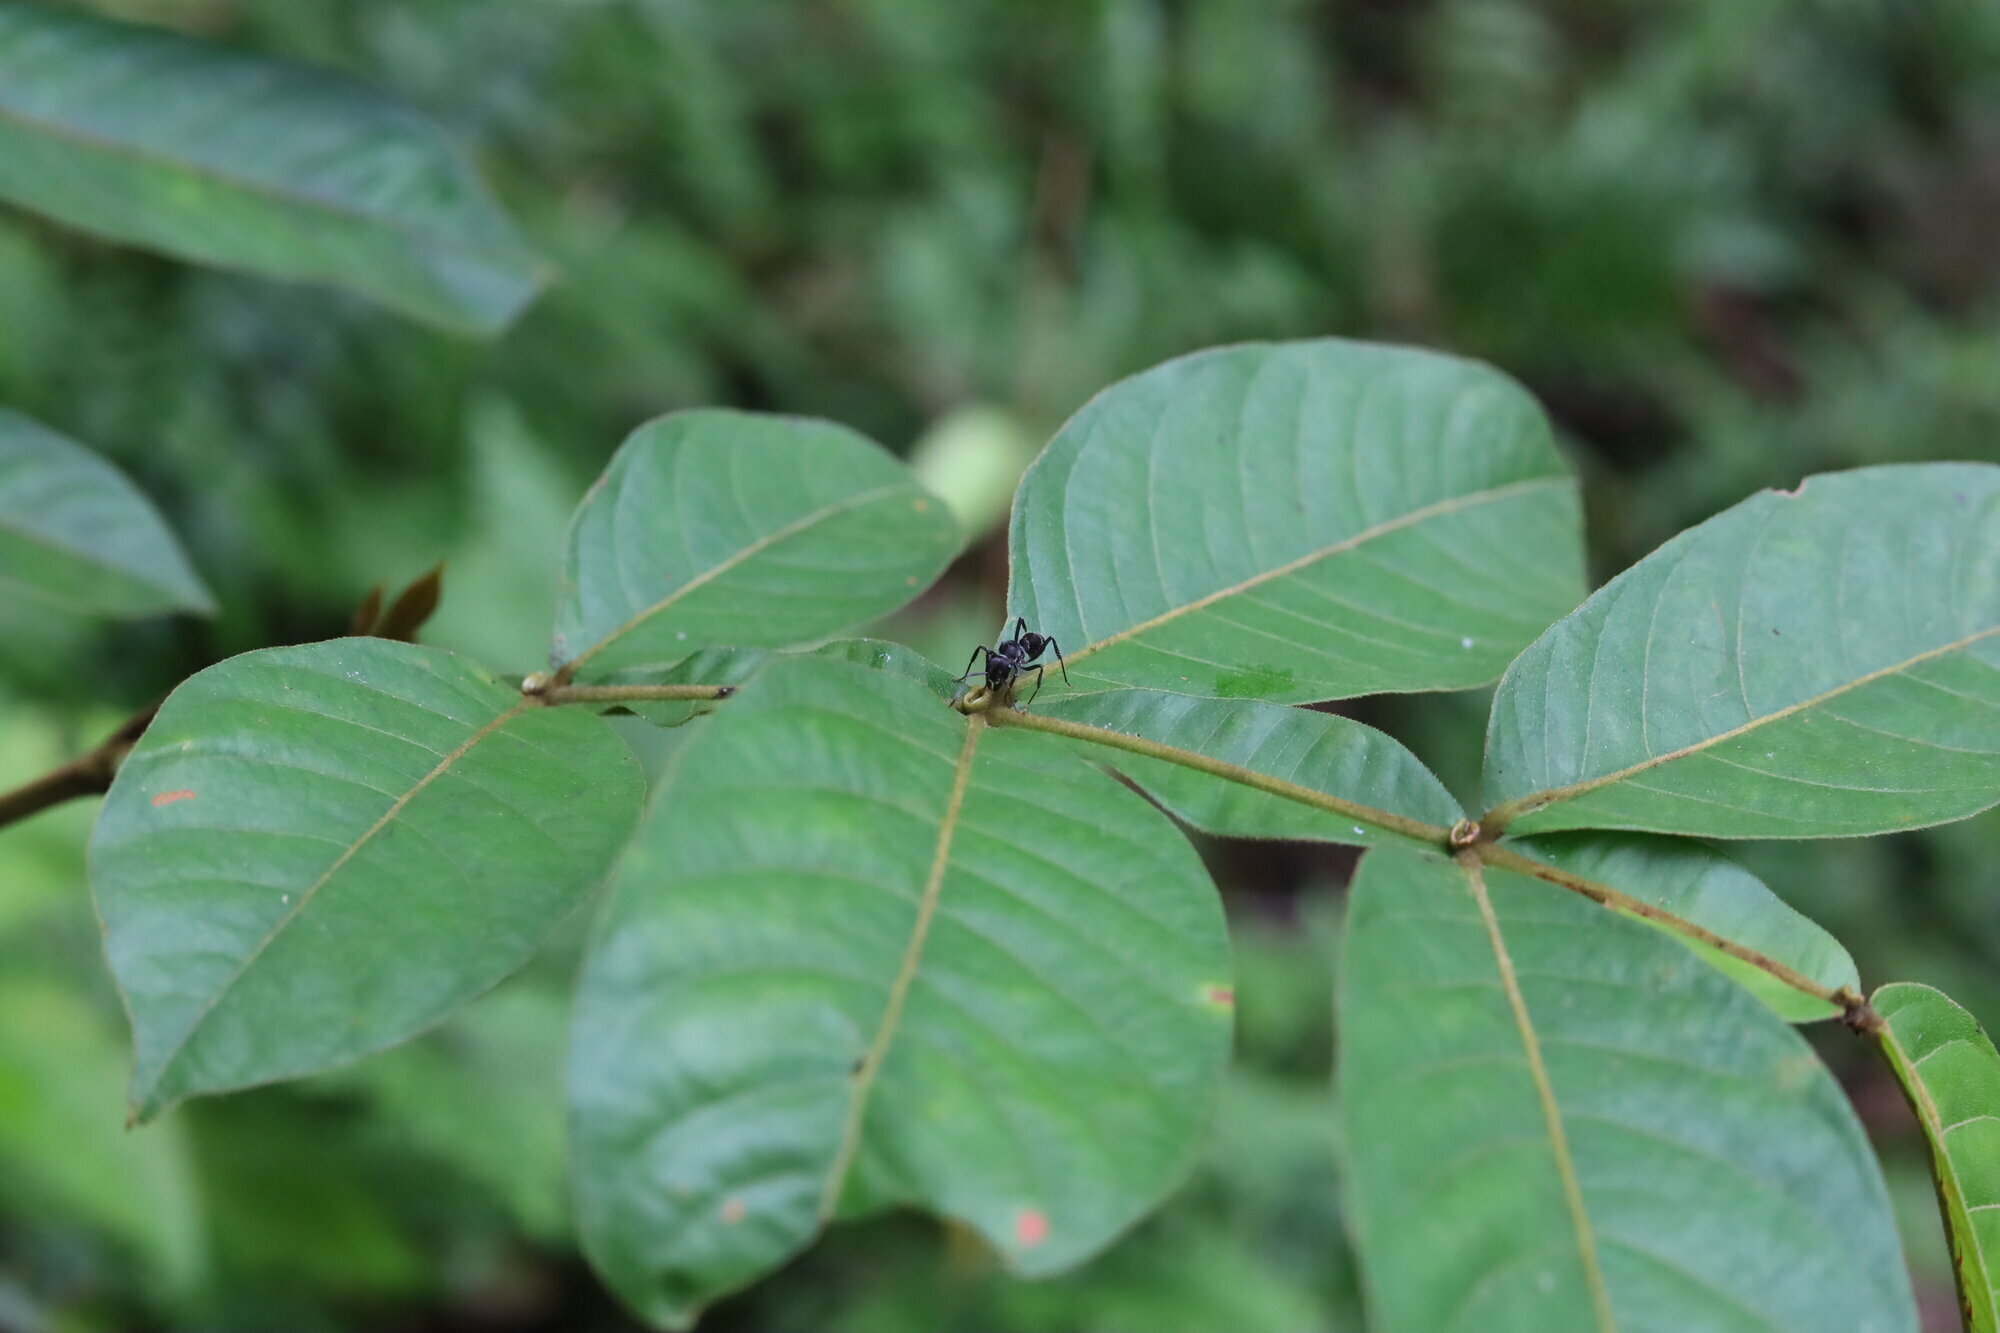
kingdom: Animalia
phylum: Arthropoda
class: Insecta
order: Hymenoptera
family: Formicidae
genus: Ectatomma
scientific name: Ectatomma brunneum
